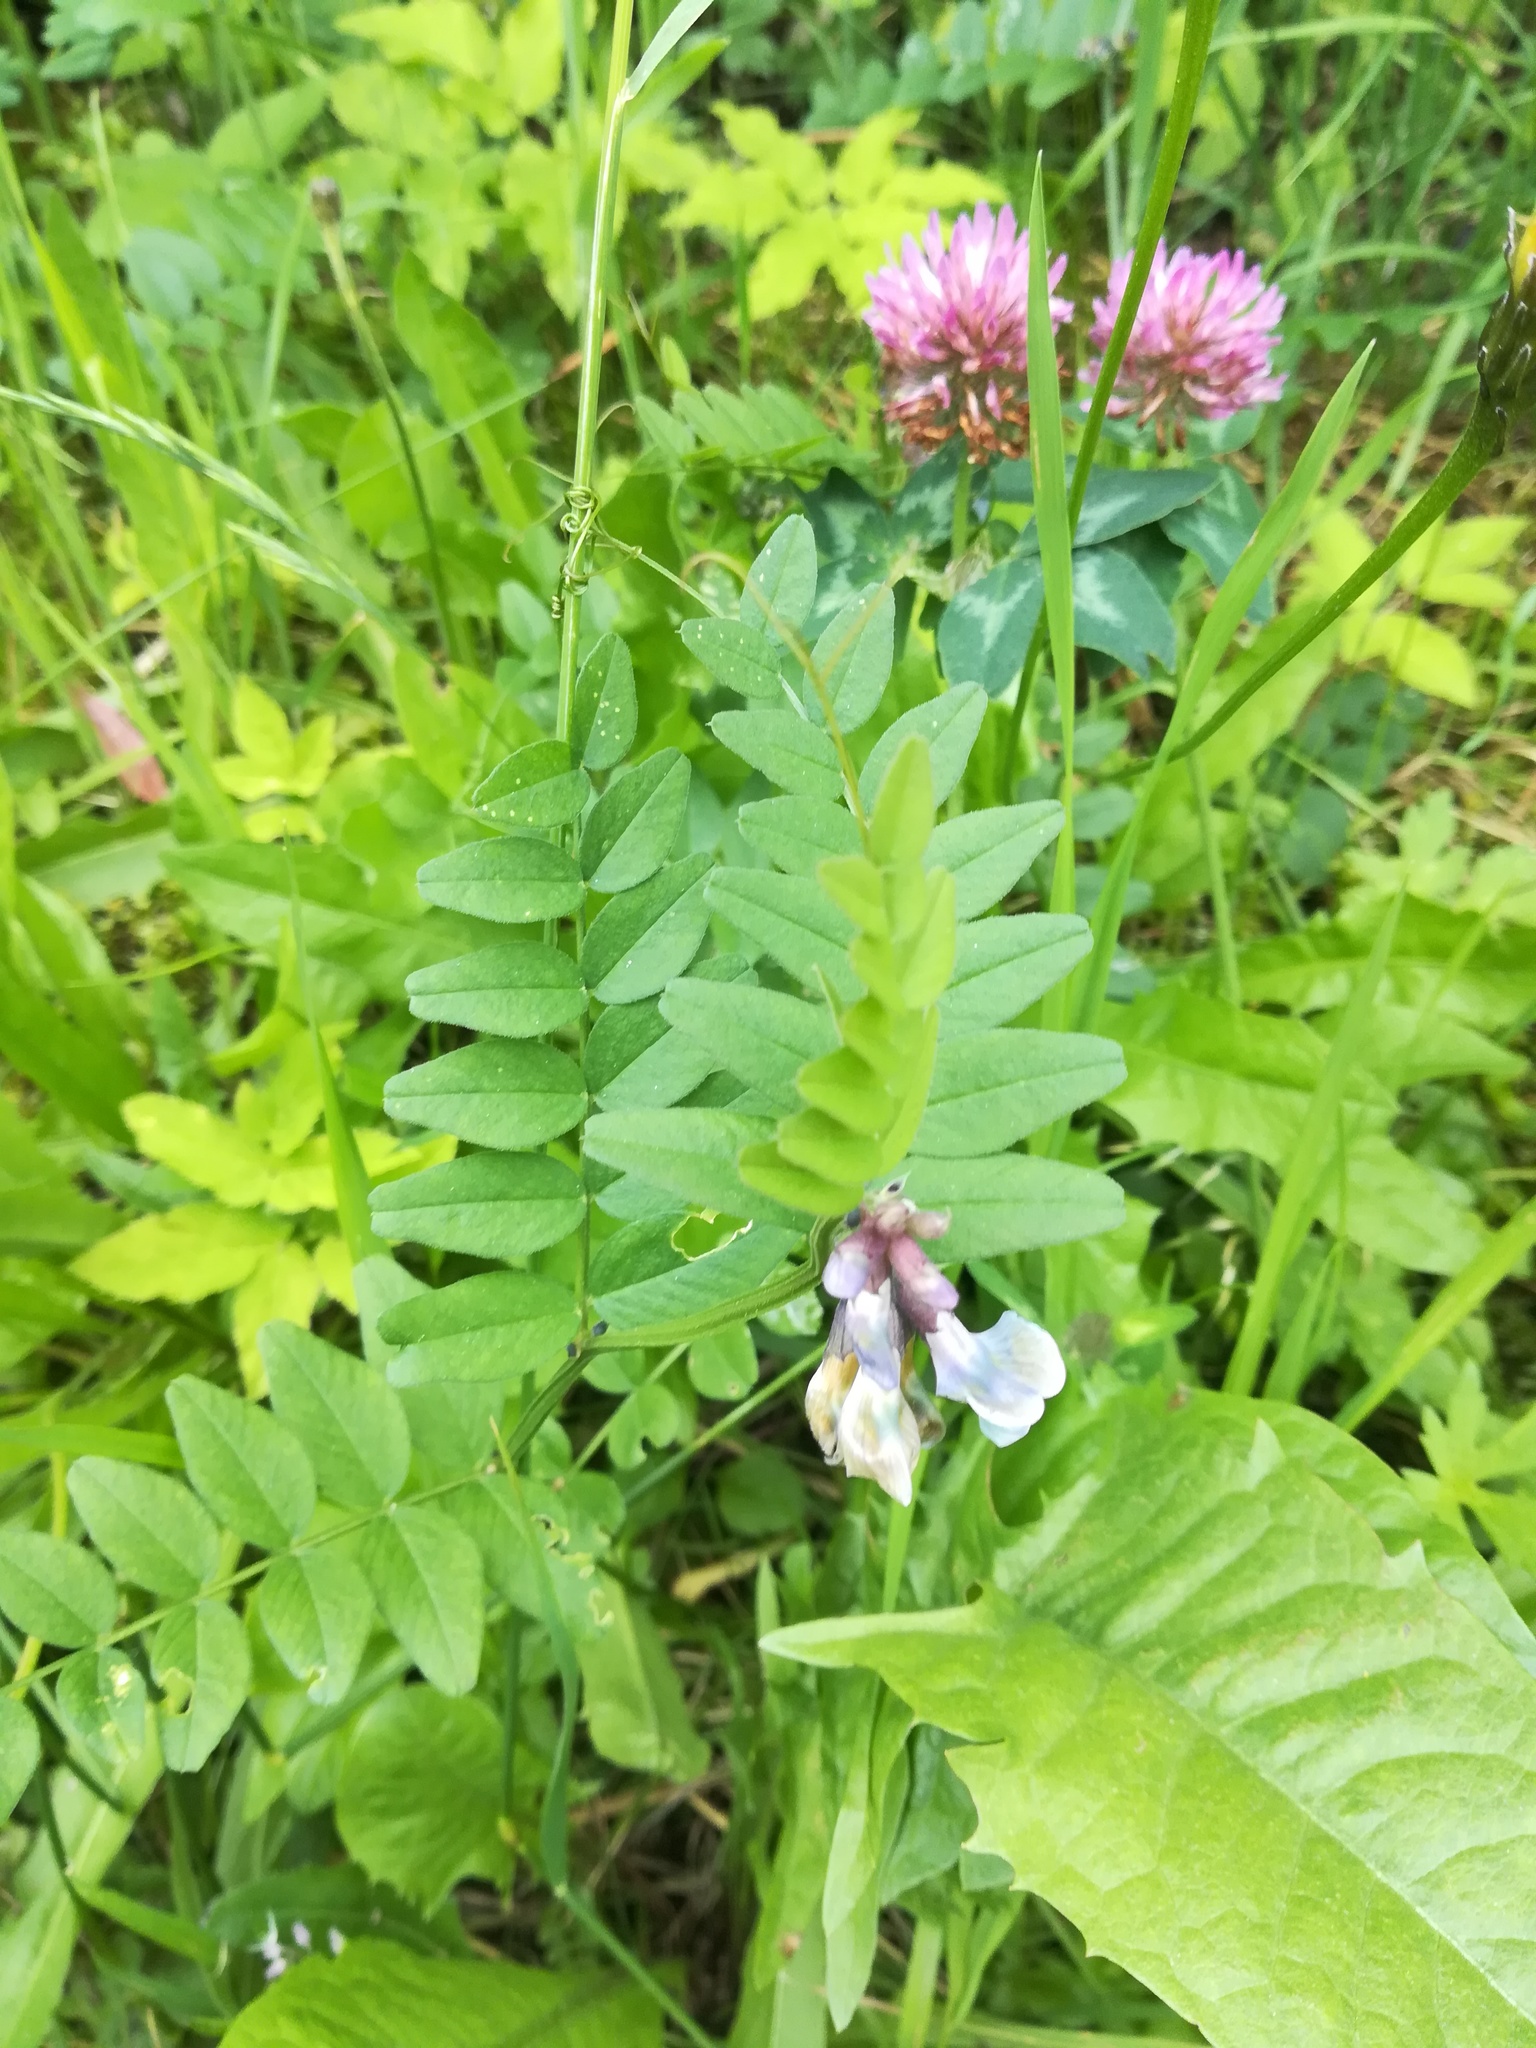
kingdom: Plantae
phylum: Tracheophyta
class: Magnoliopsida
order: Fabales
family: Fabaceae
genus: Vicia
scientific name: Vicia sepium
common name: Bush vetch
